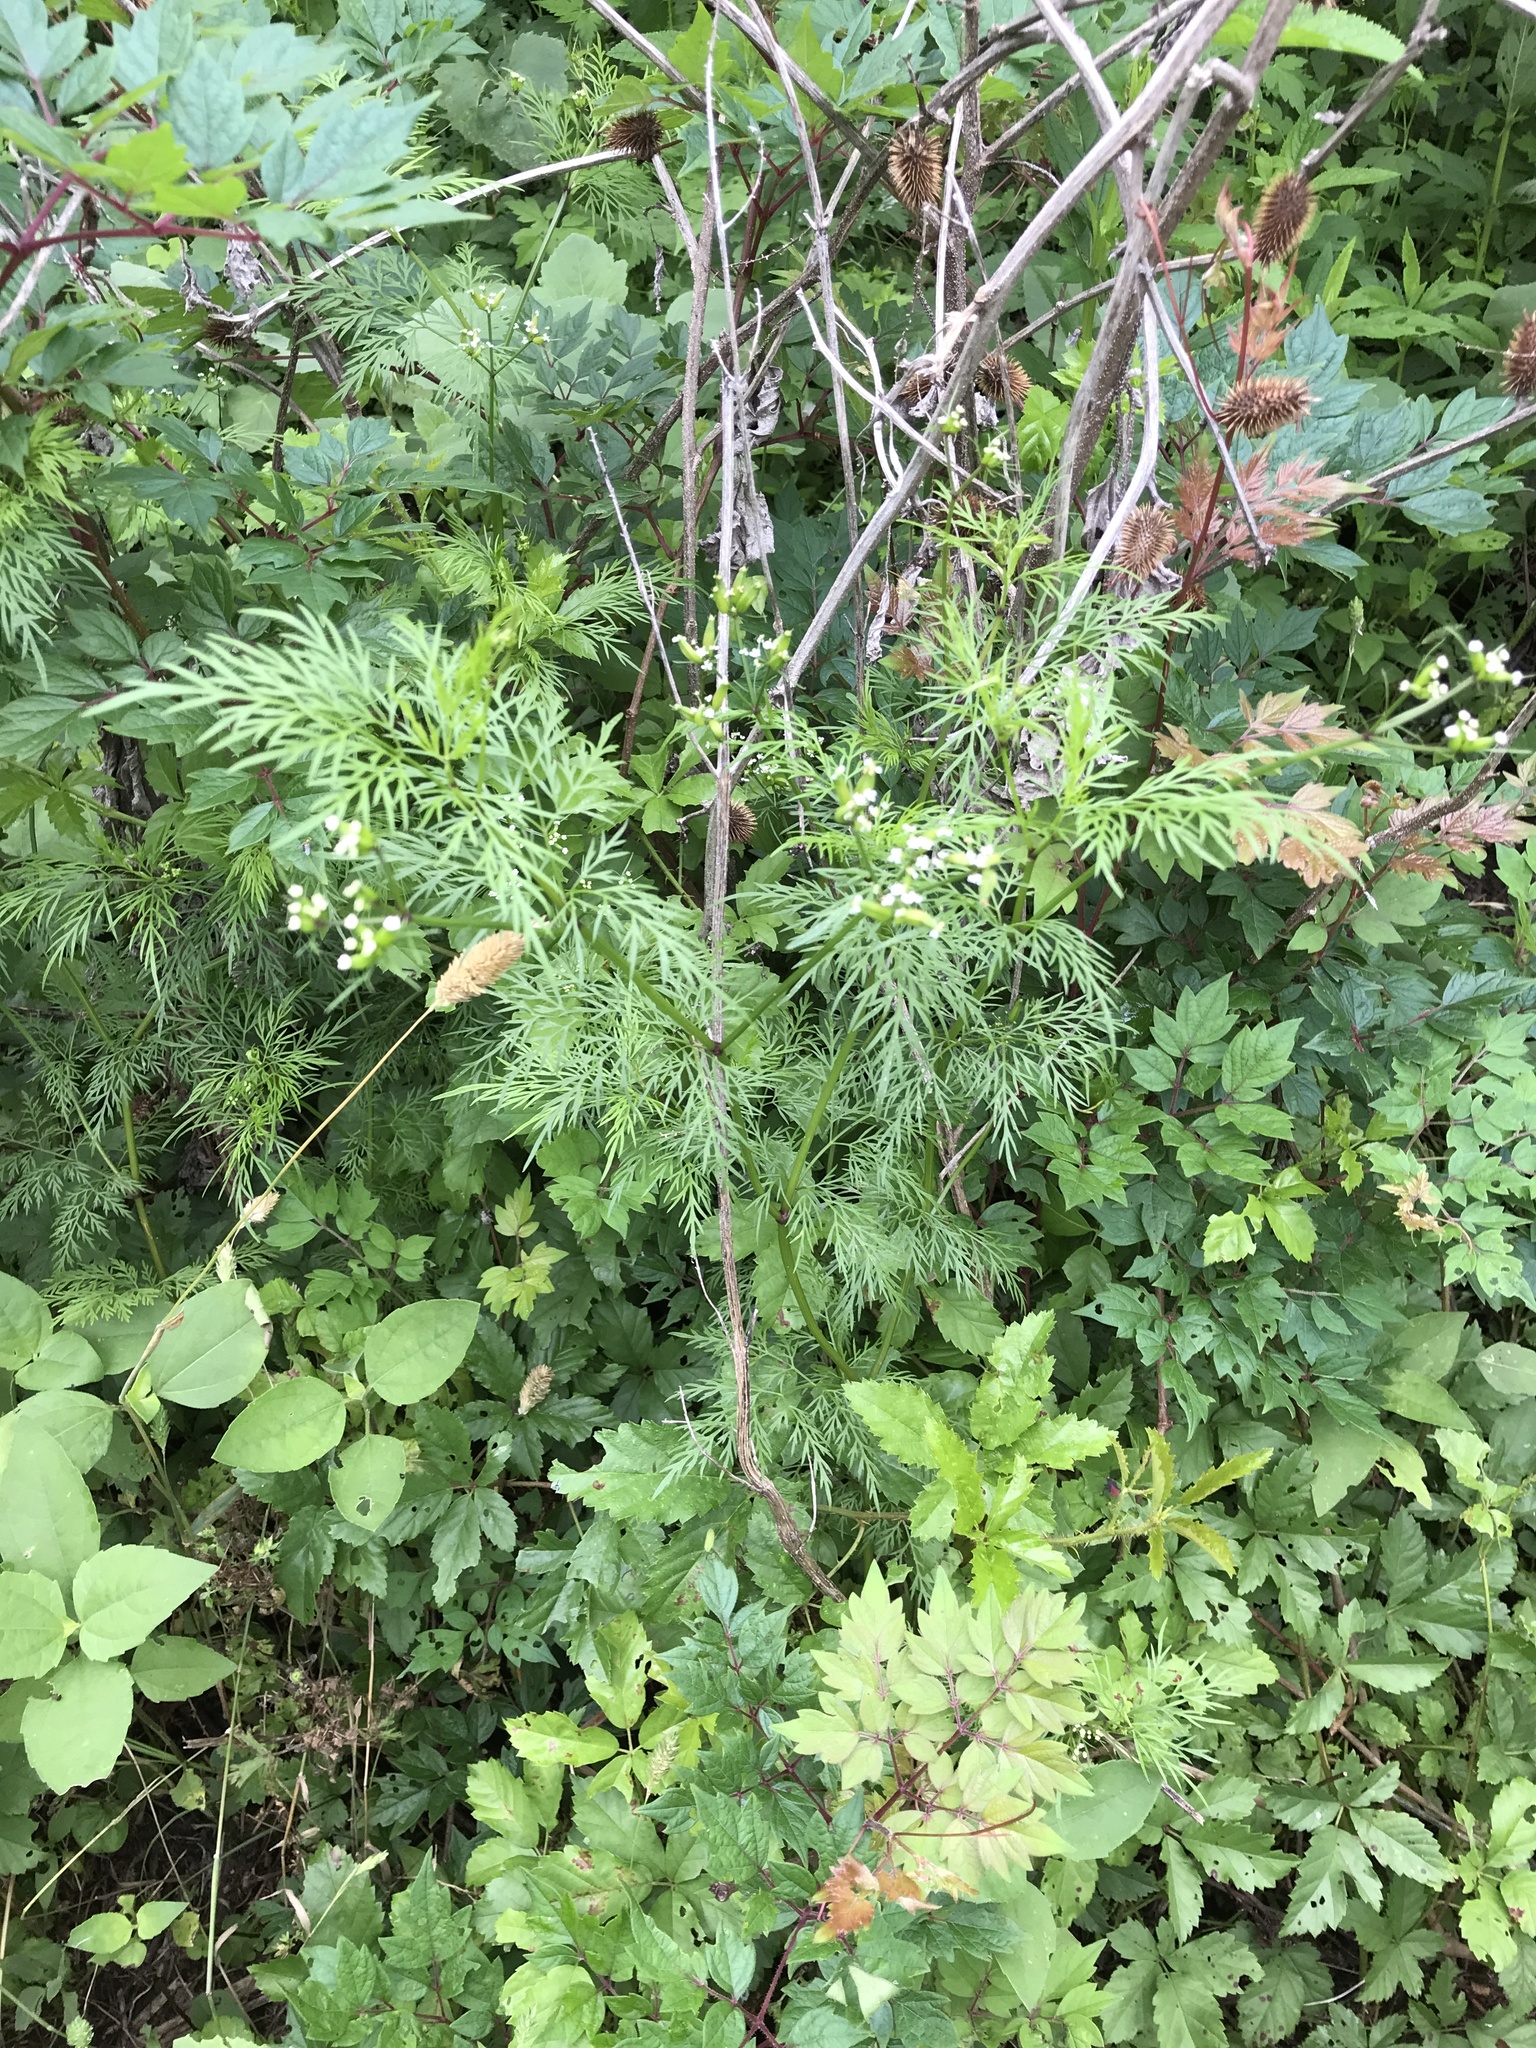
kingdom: Plantae
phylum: Tracheophyta
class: Magnoliopsida
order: Apiales
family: Apiaceae
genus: Trepocarpus
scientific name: Trepocarpus aethusae
